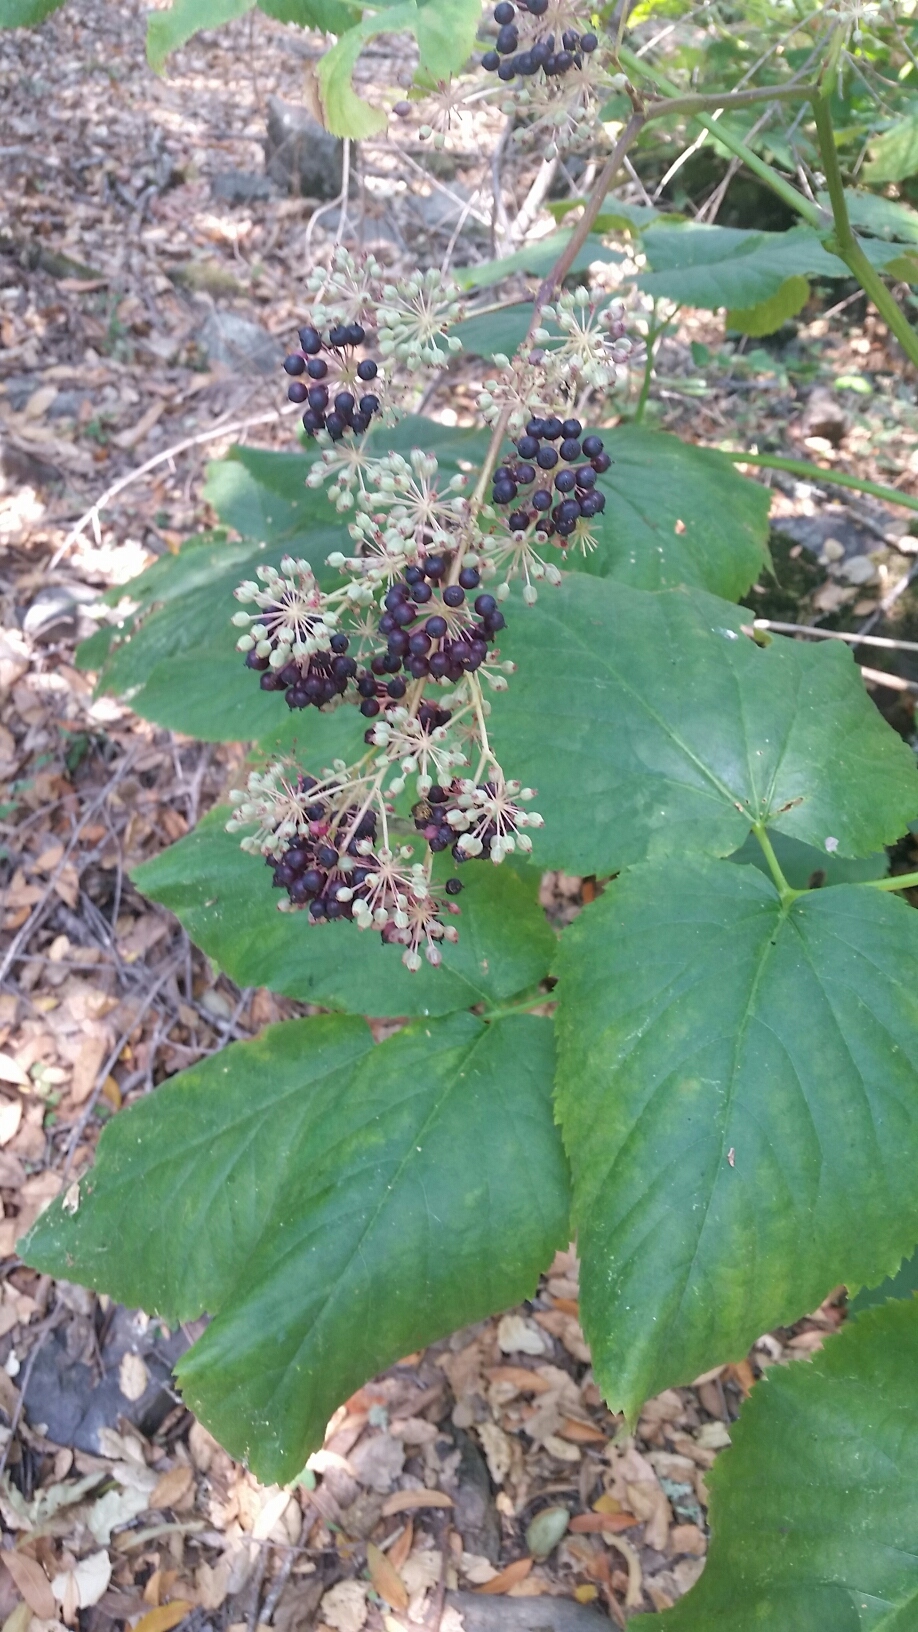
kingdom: Plantae
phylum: Tracheophyta
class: Magnoliopsida
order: Apiales
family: Araliaceae
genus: Aralia
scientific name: Aralia californica
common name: California-ginseng
